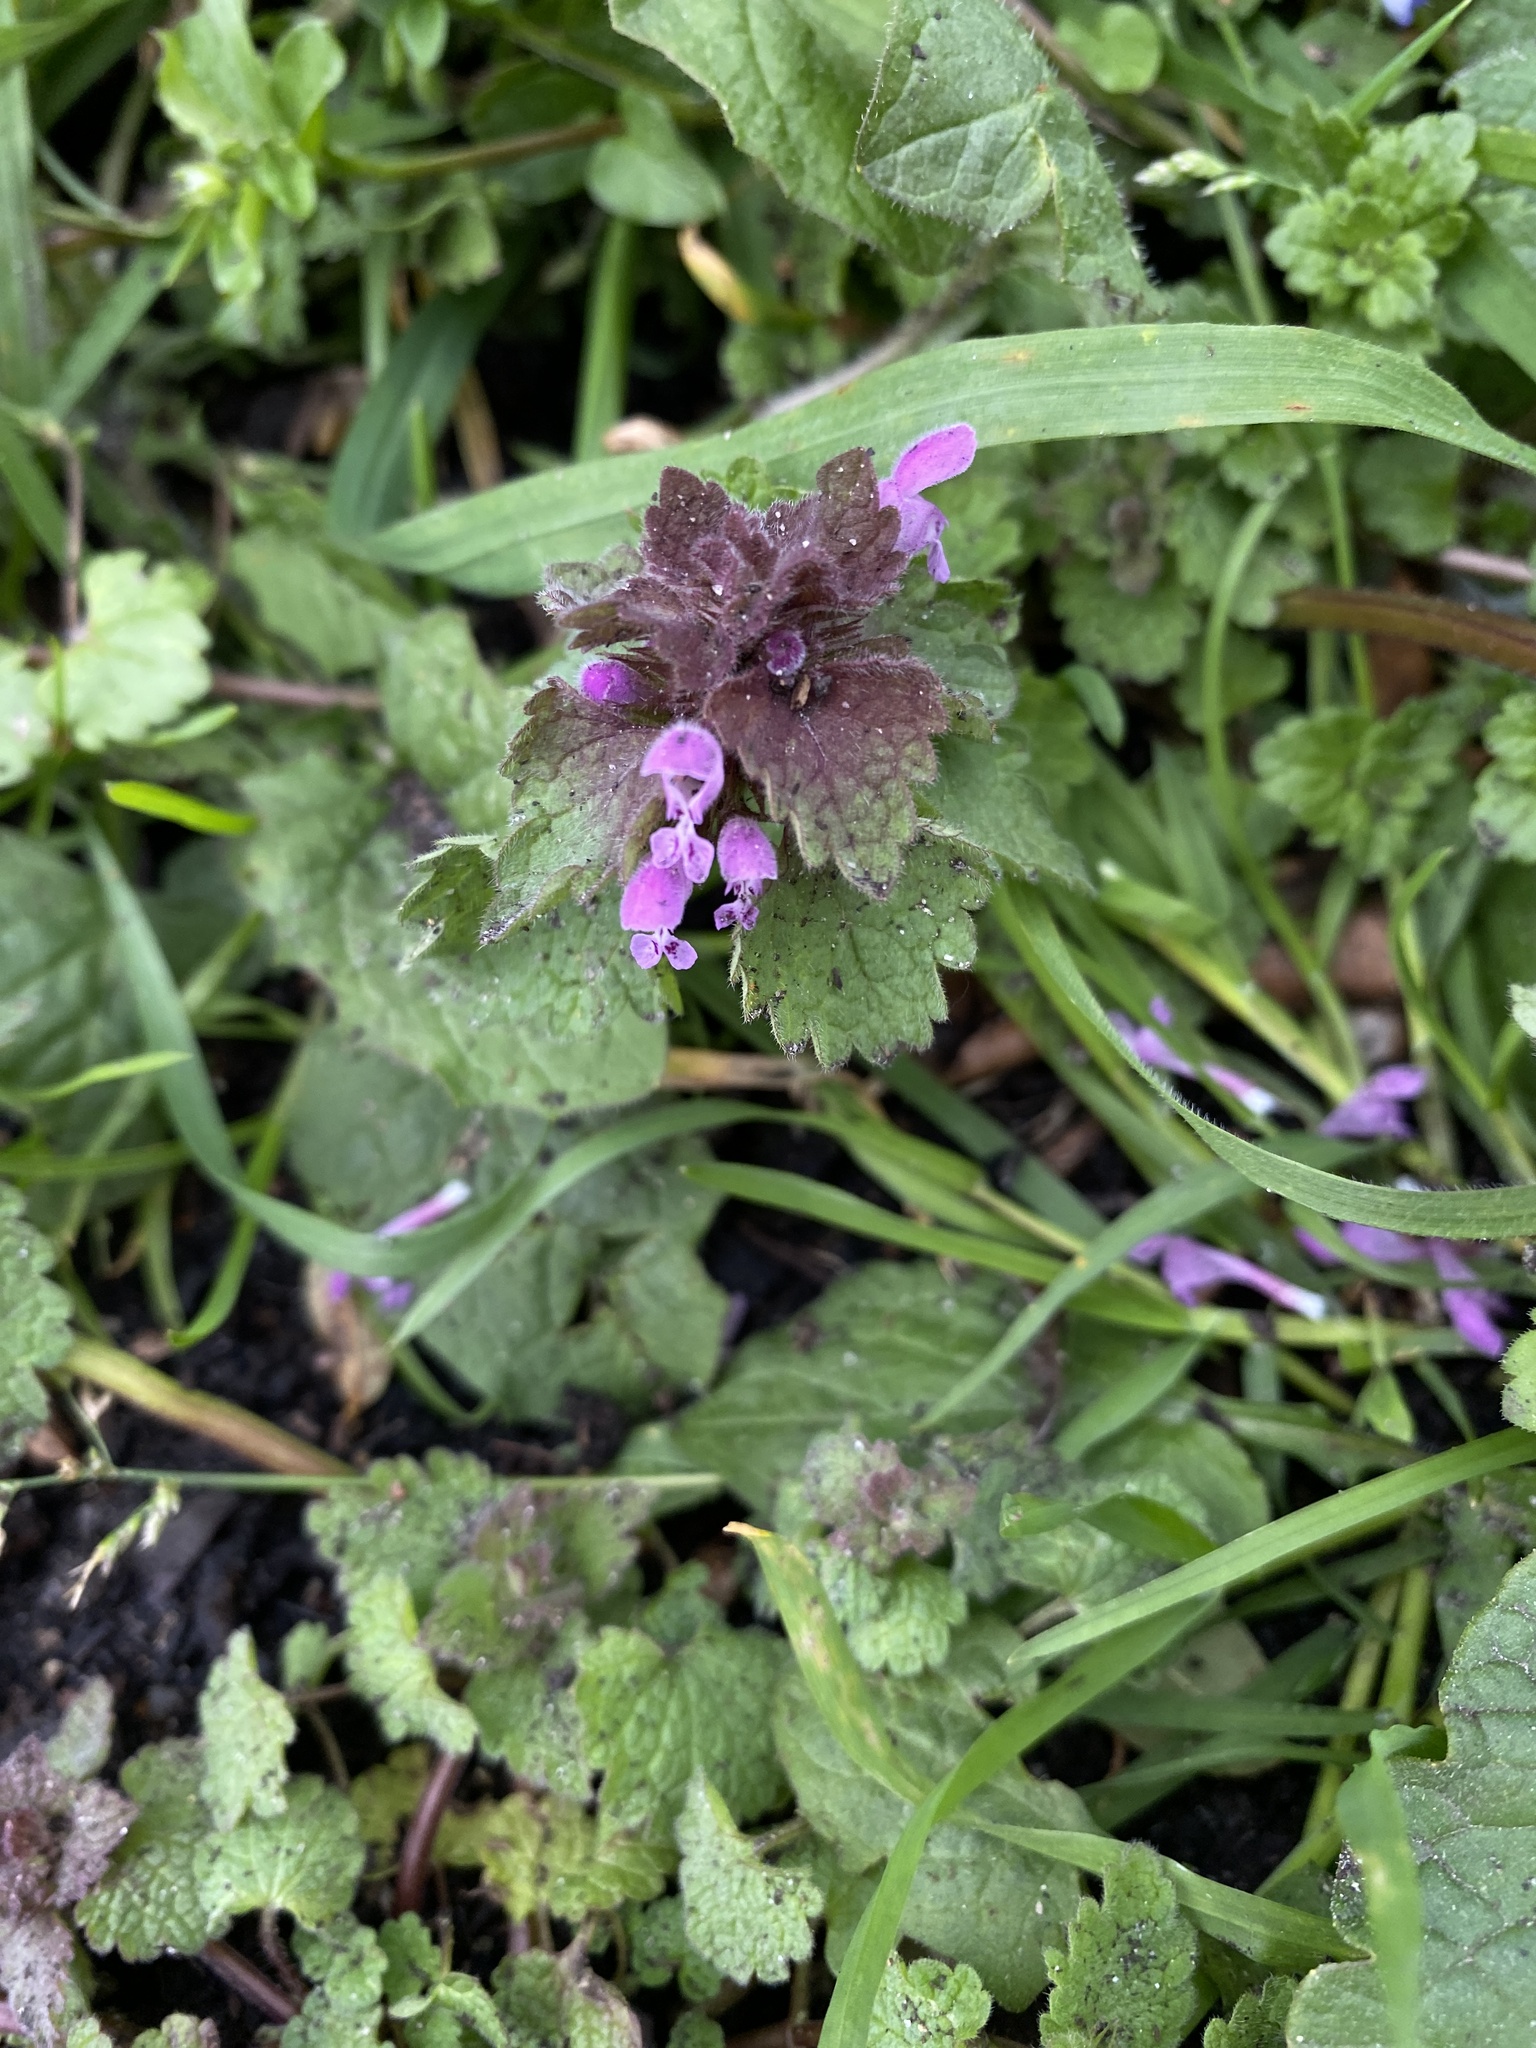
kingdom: Plantae
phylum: Tracheophyta
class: Magnoliopsida
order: Lamiales
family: Lamiaceae
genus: Lamium
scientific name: Lamium purpureum
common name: Red dead-nettle
